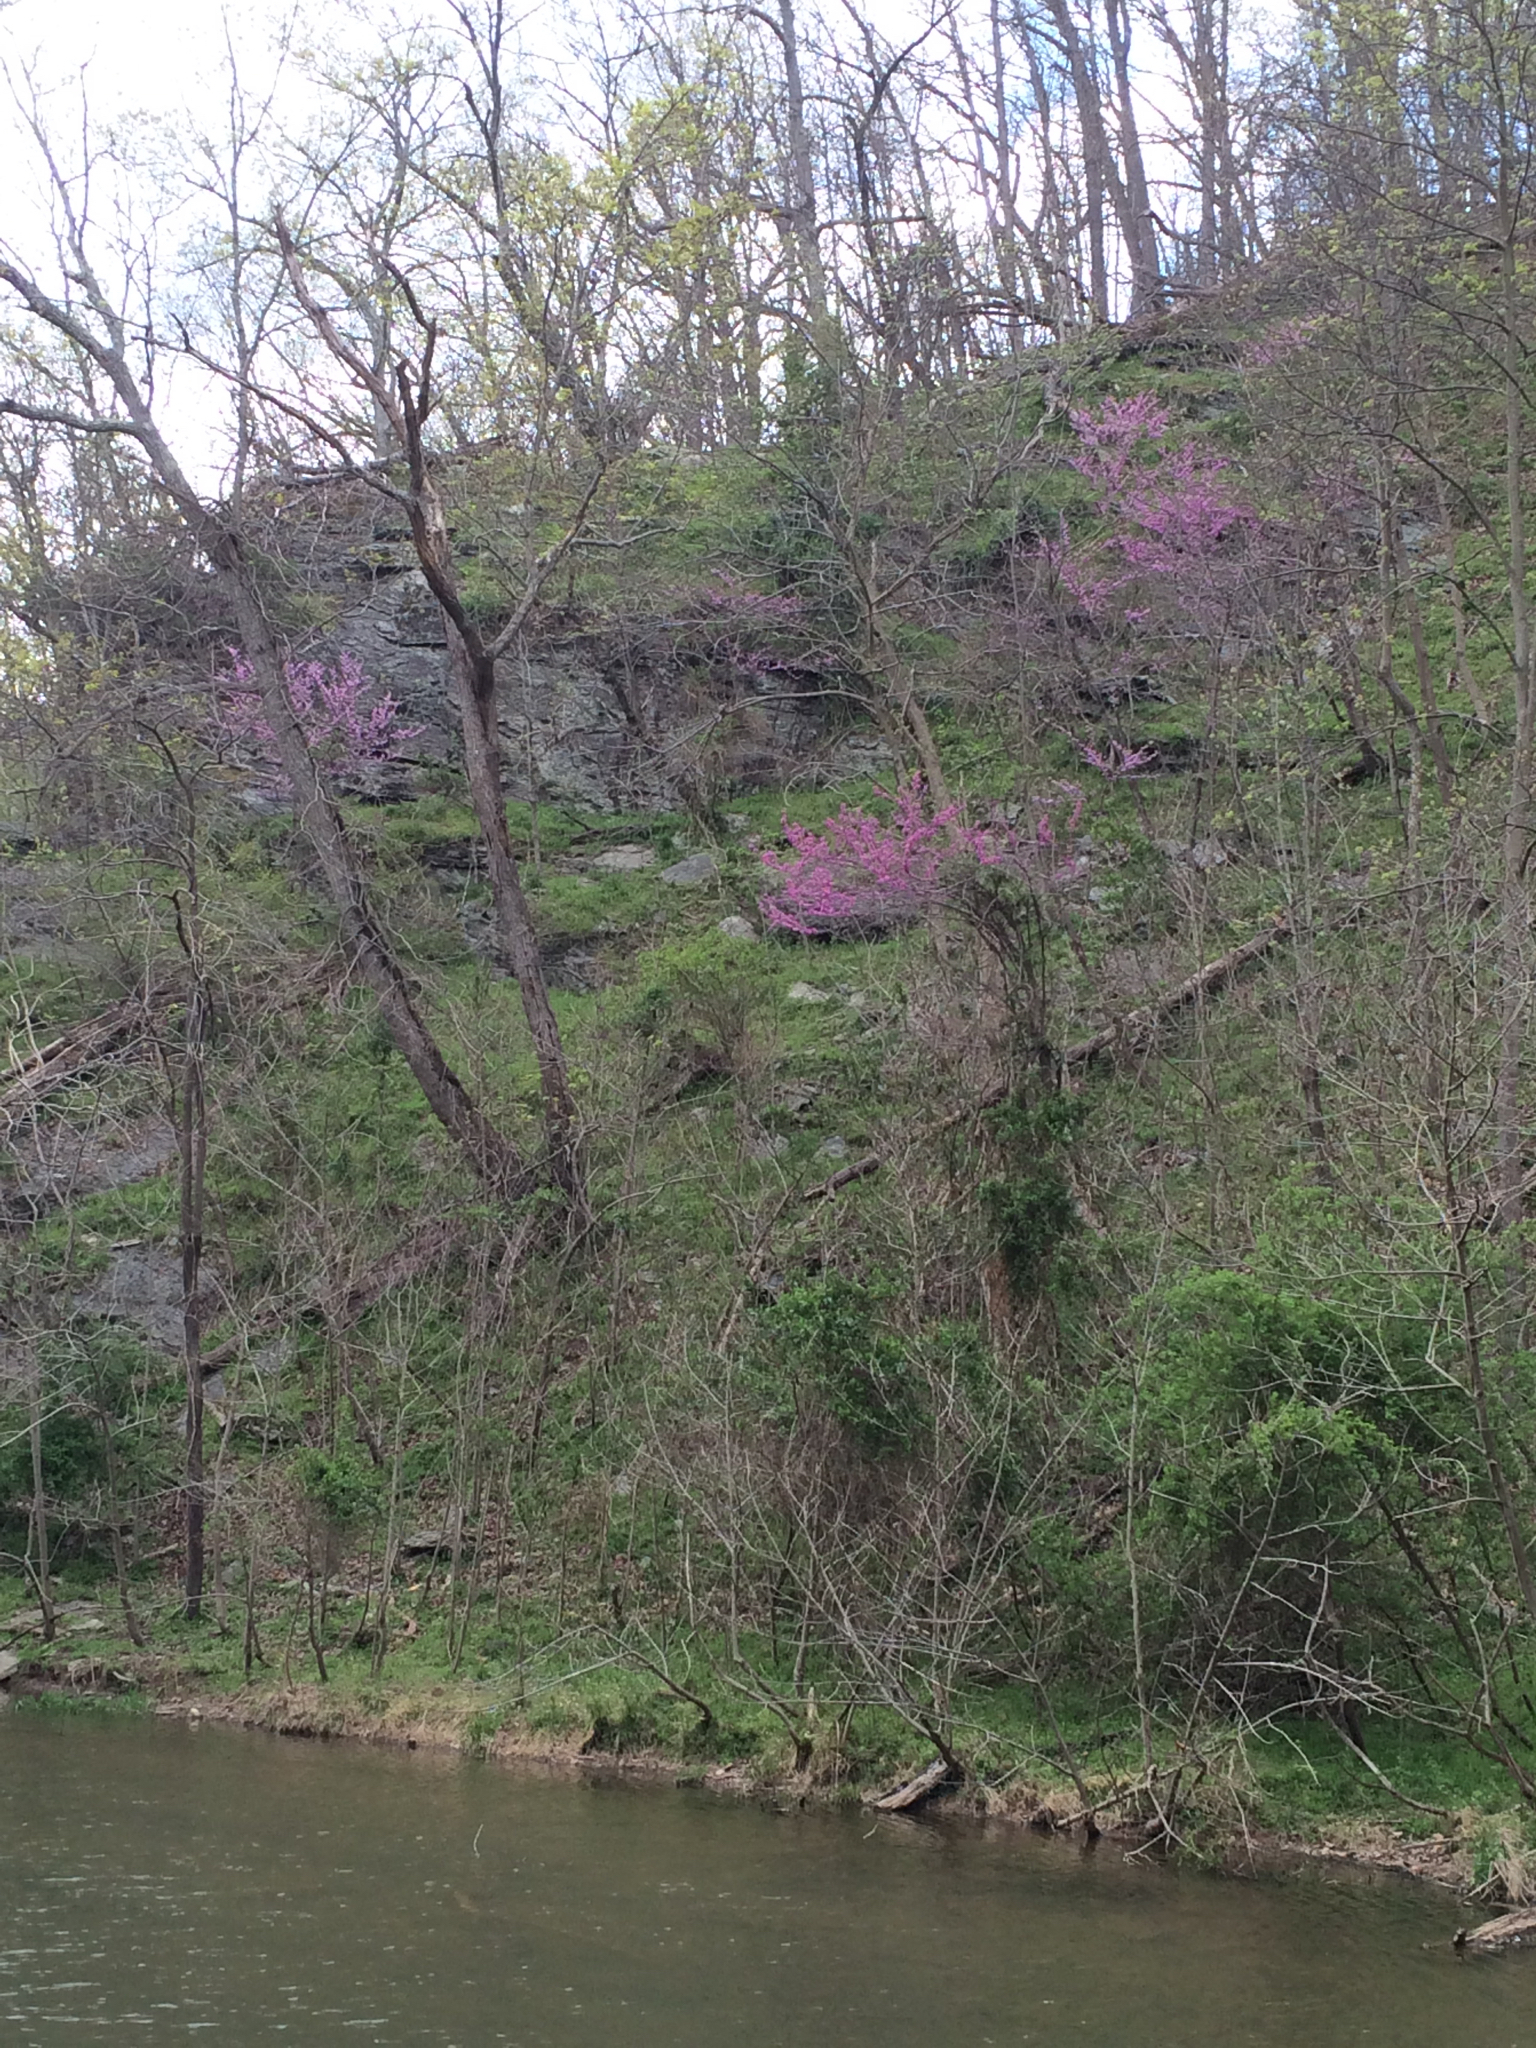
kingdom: Plantae
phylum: Tracheophyta
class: Magnoliopsida
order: Fabales
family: Fabaceae
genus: Cercis
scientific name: Cercis canadensis
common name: Eastern redbud
